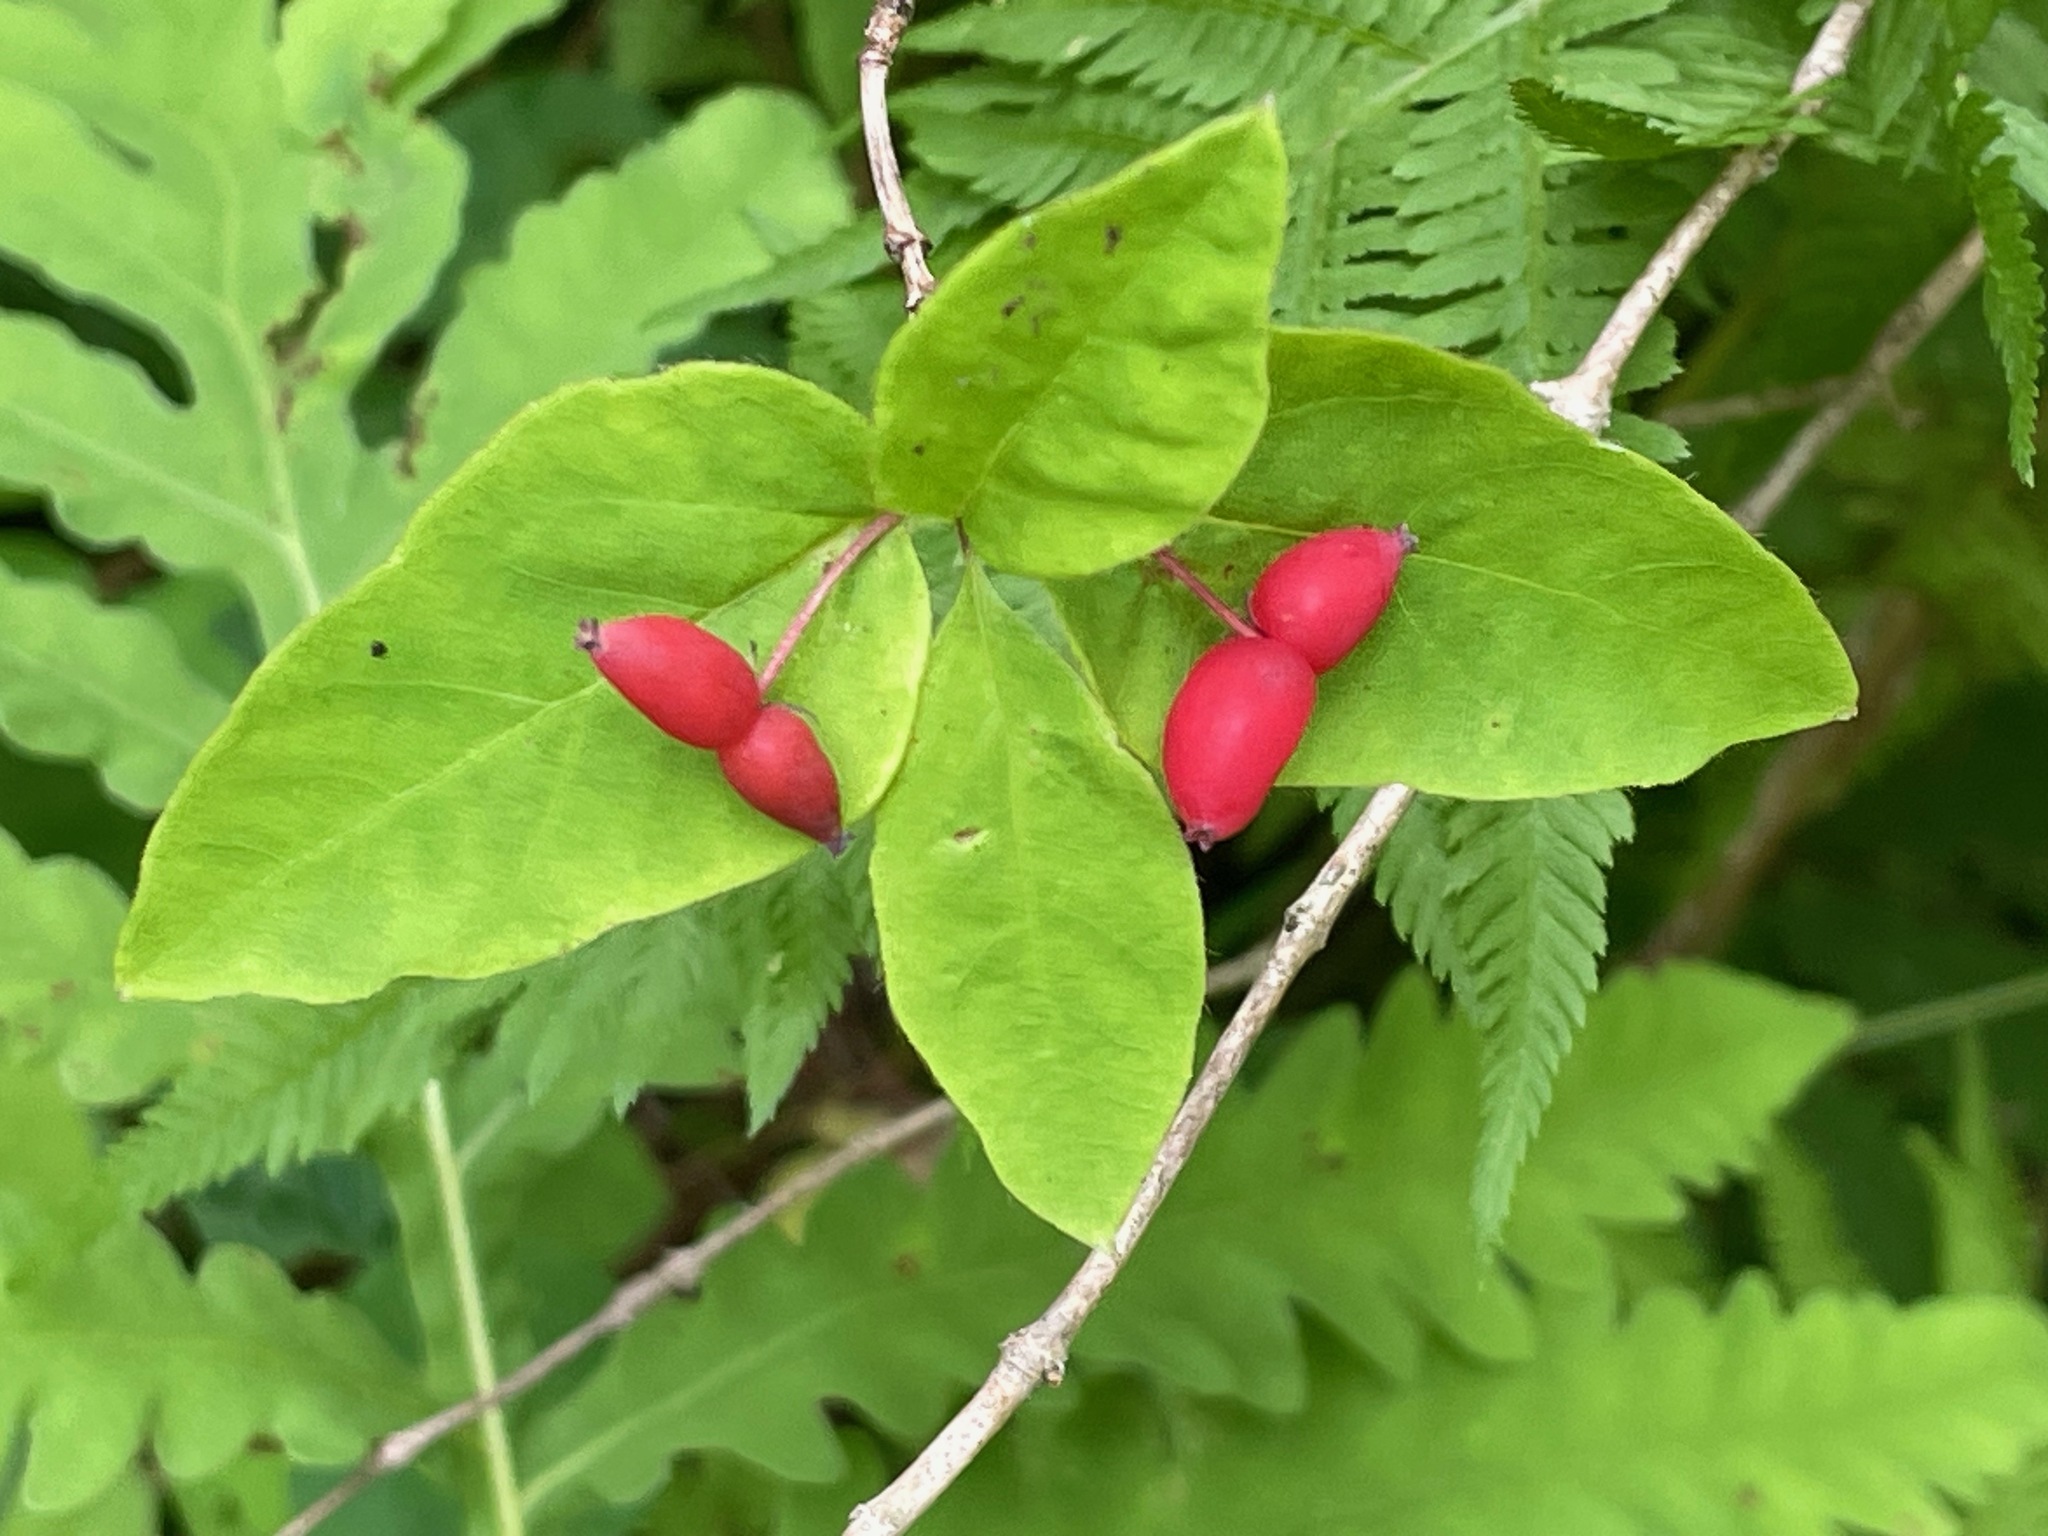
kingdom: Plantae
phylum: Tracheophyta
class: Magnoliopsida
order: Dipsacales
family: Caprifoliaceae
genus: Lonicera
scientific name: Lonicera canadensis
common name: American fly-honeysuckle
